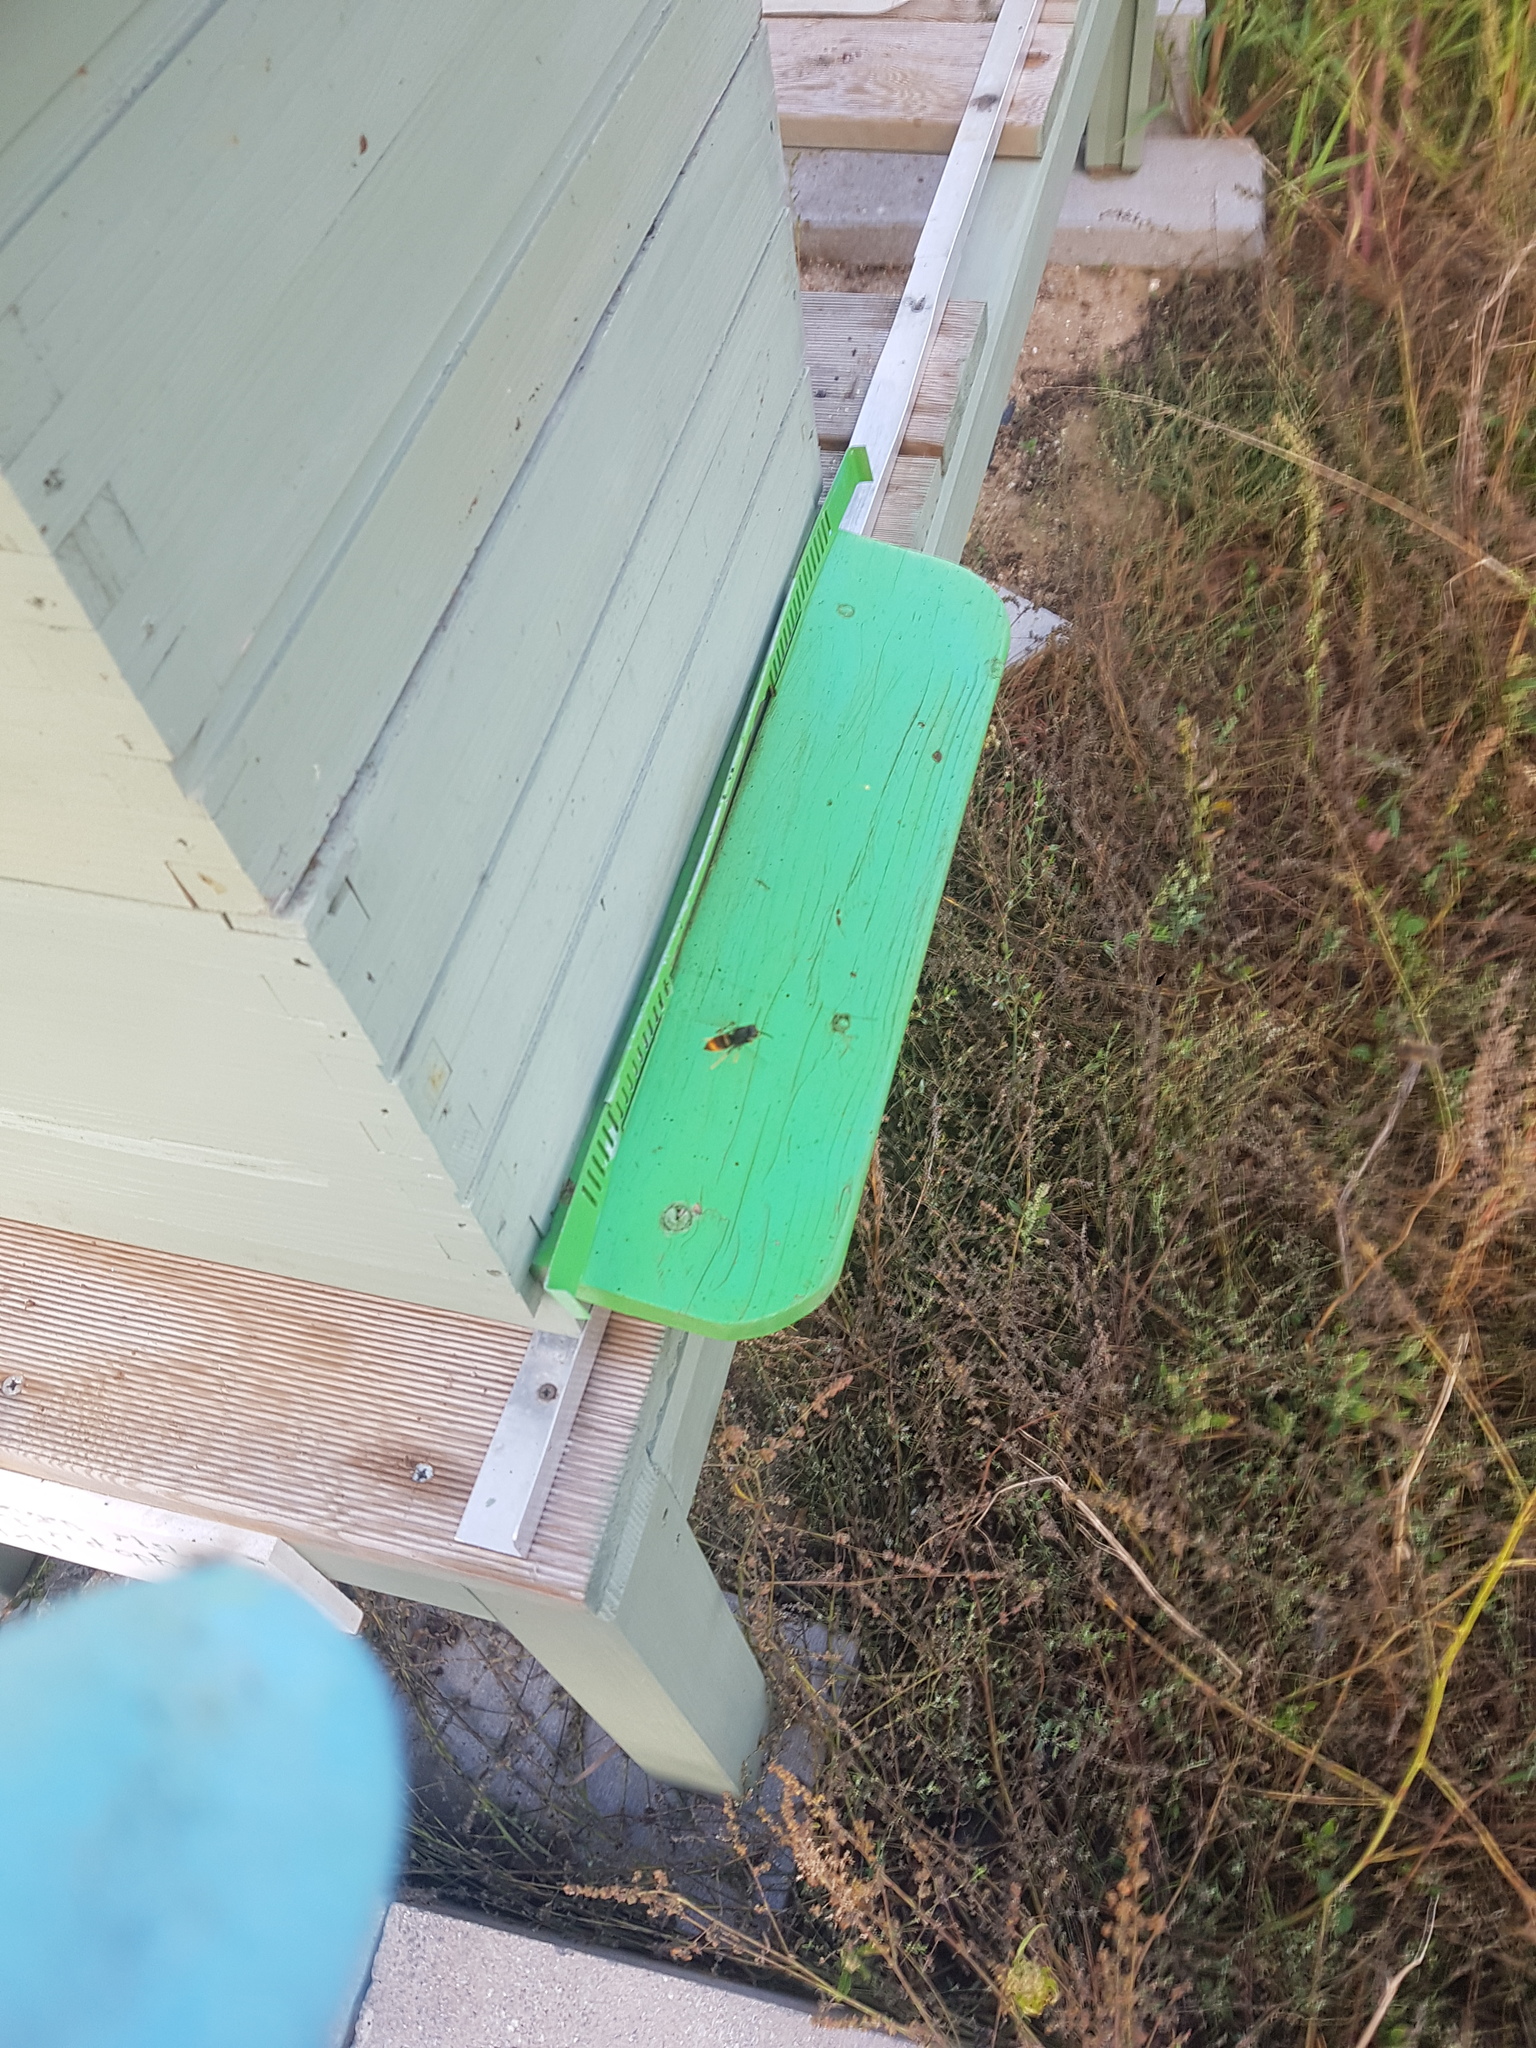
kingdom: Animalia
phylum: Arthropoda
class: Insecta
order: Hymenoptera
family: Vespidae
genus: Vespa
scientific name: Vespa velutina
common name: Asian hornet
